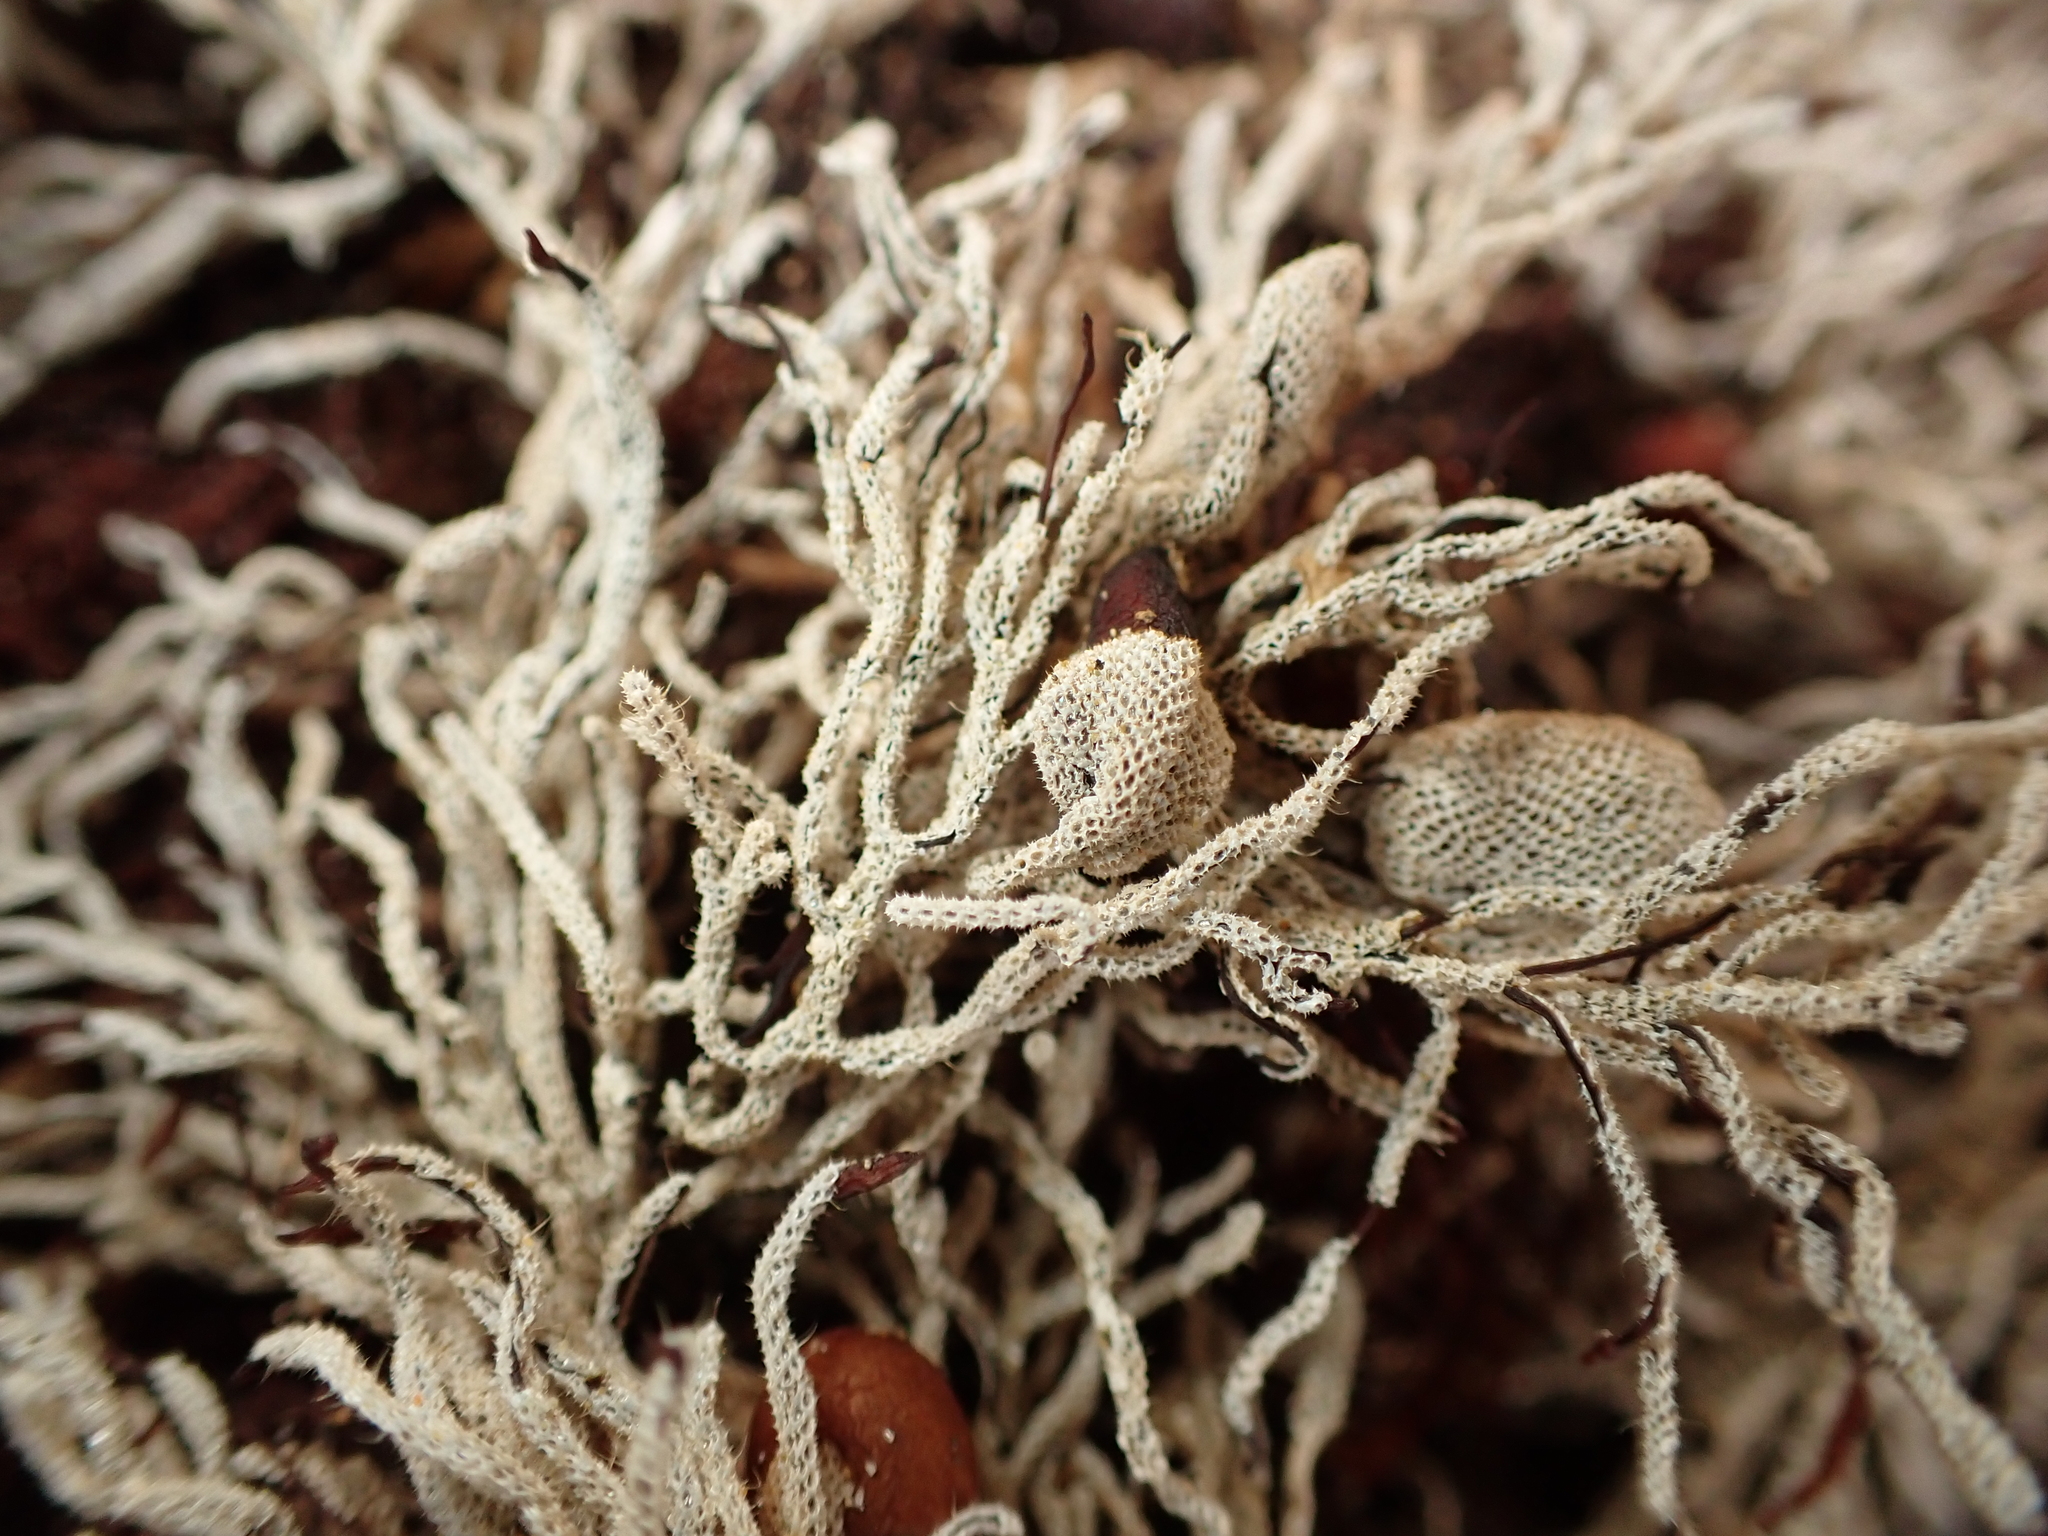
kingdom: Animalia
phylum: Bryozoa
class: Gymnolaemata
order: Cheilostomatida
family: Electridae
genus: Electra
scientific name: Electra scuticifera
